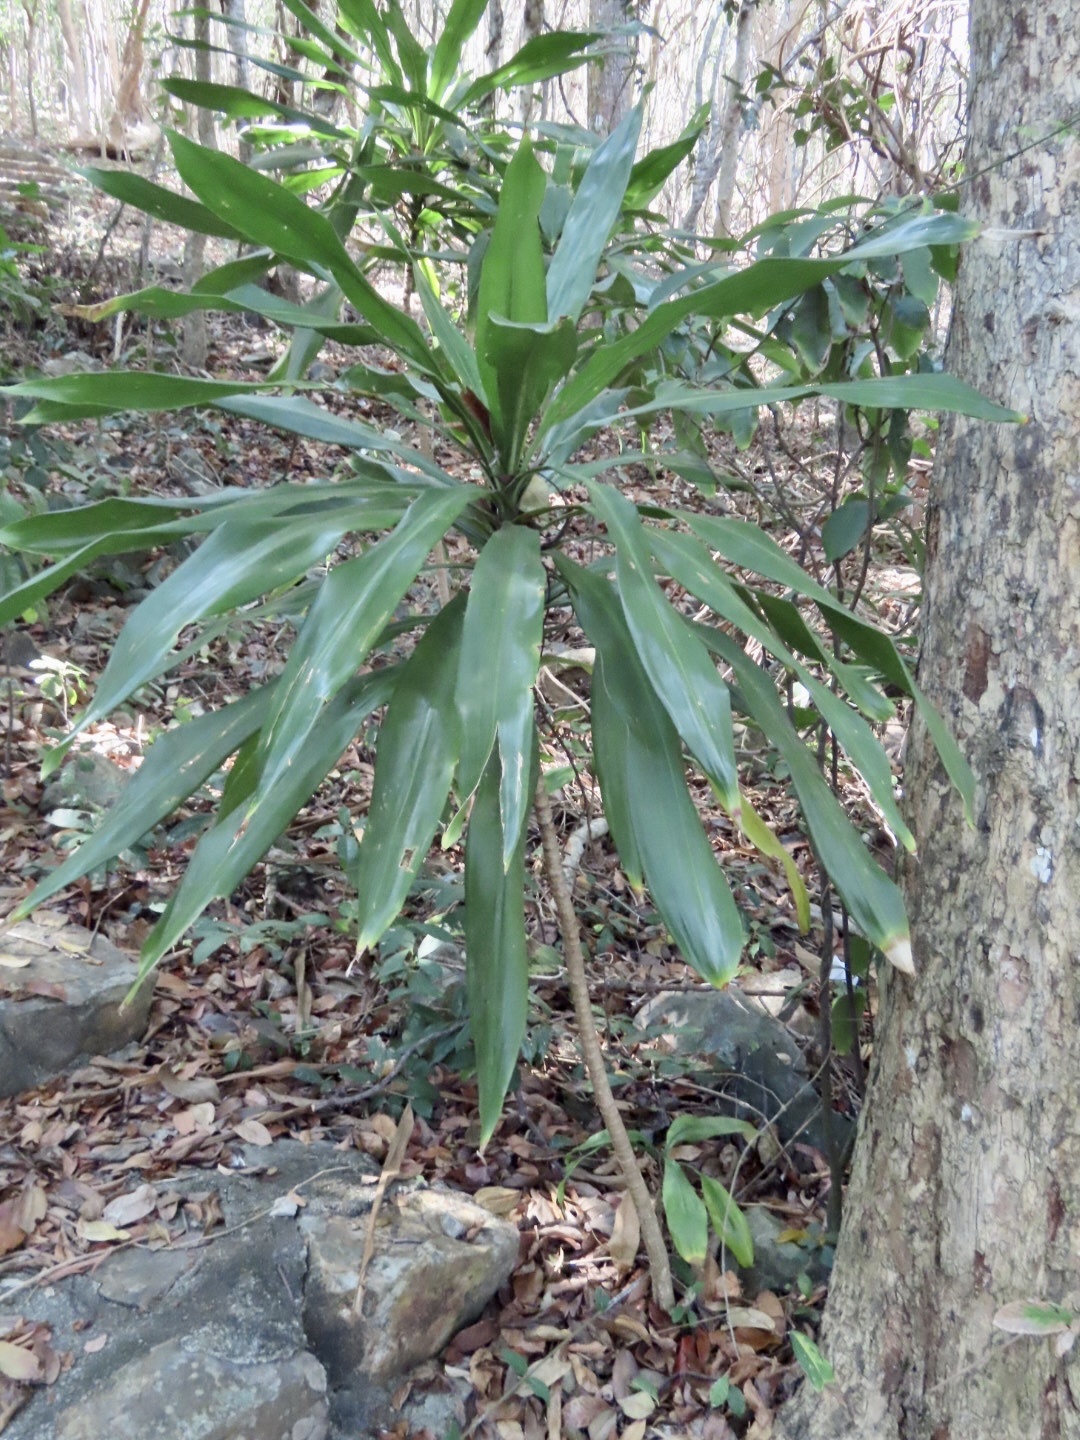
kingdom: Plantae
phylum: Tracheophyta
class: Liliopsida
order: Asparagales
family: Asparagaceae
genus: Dracaena
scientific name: Dracaena fragrans
